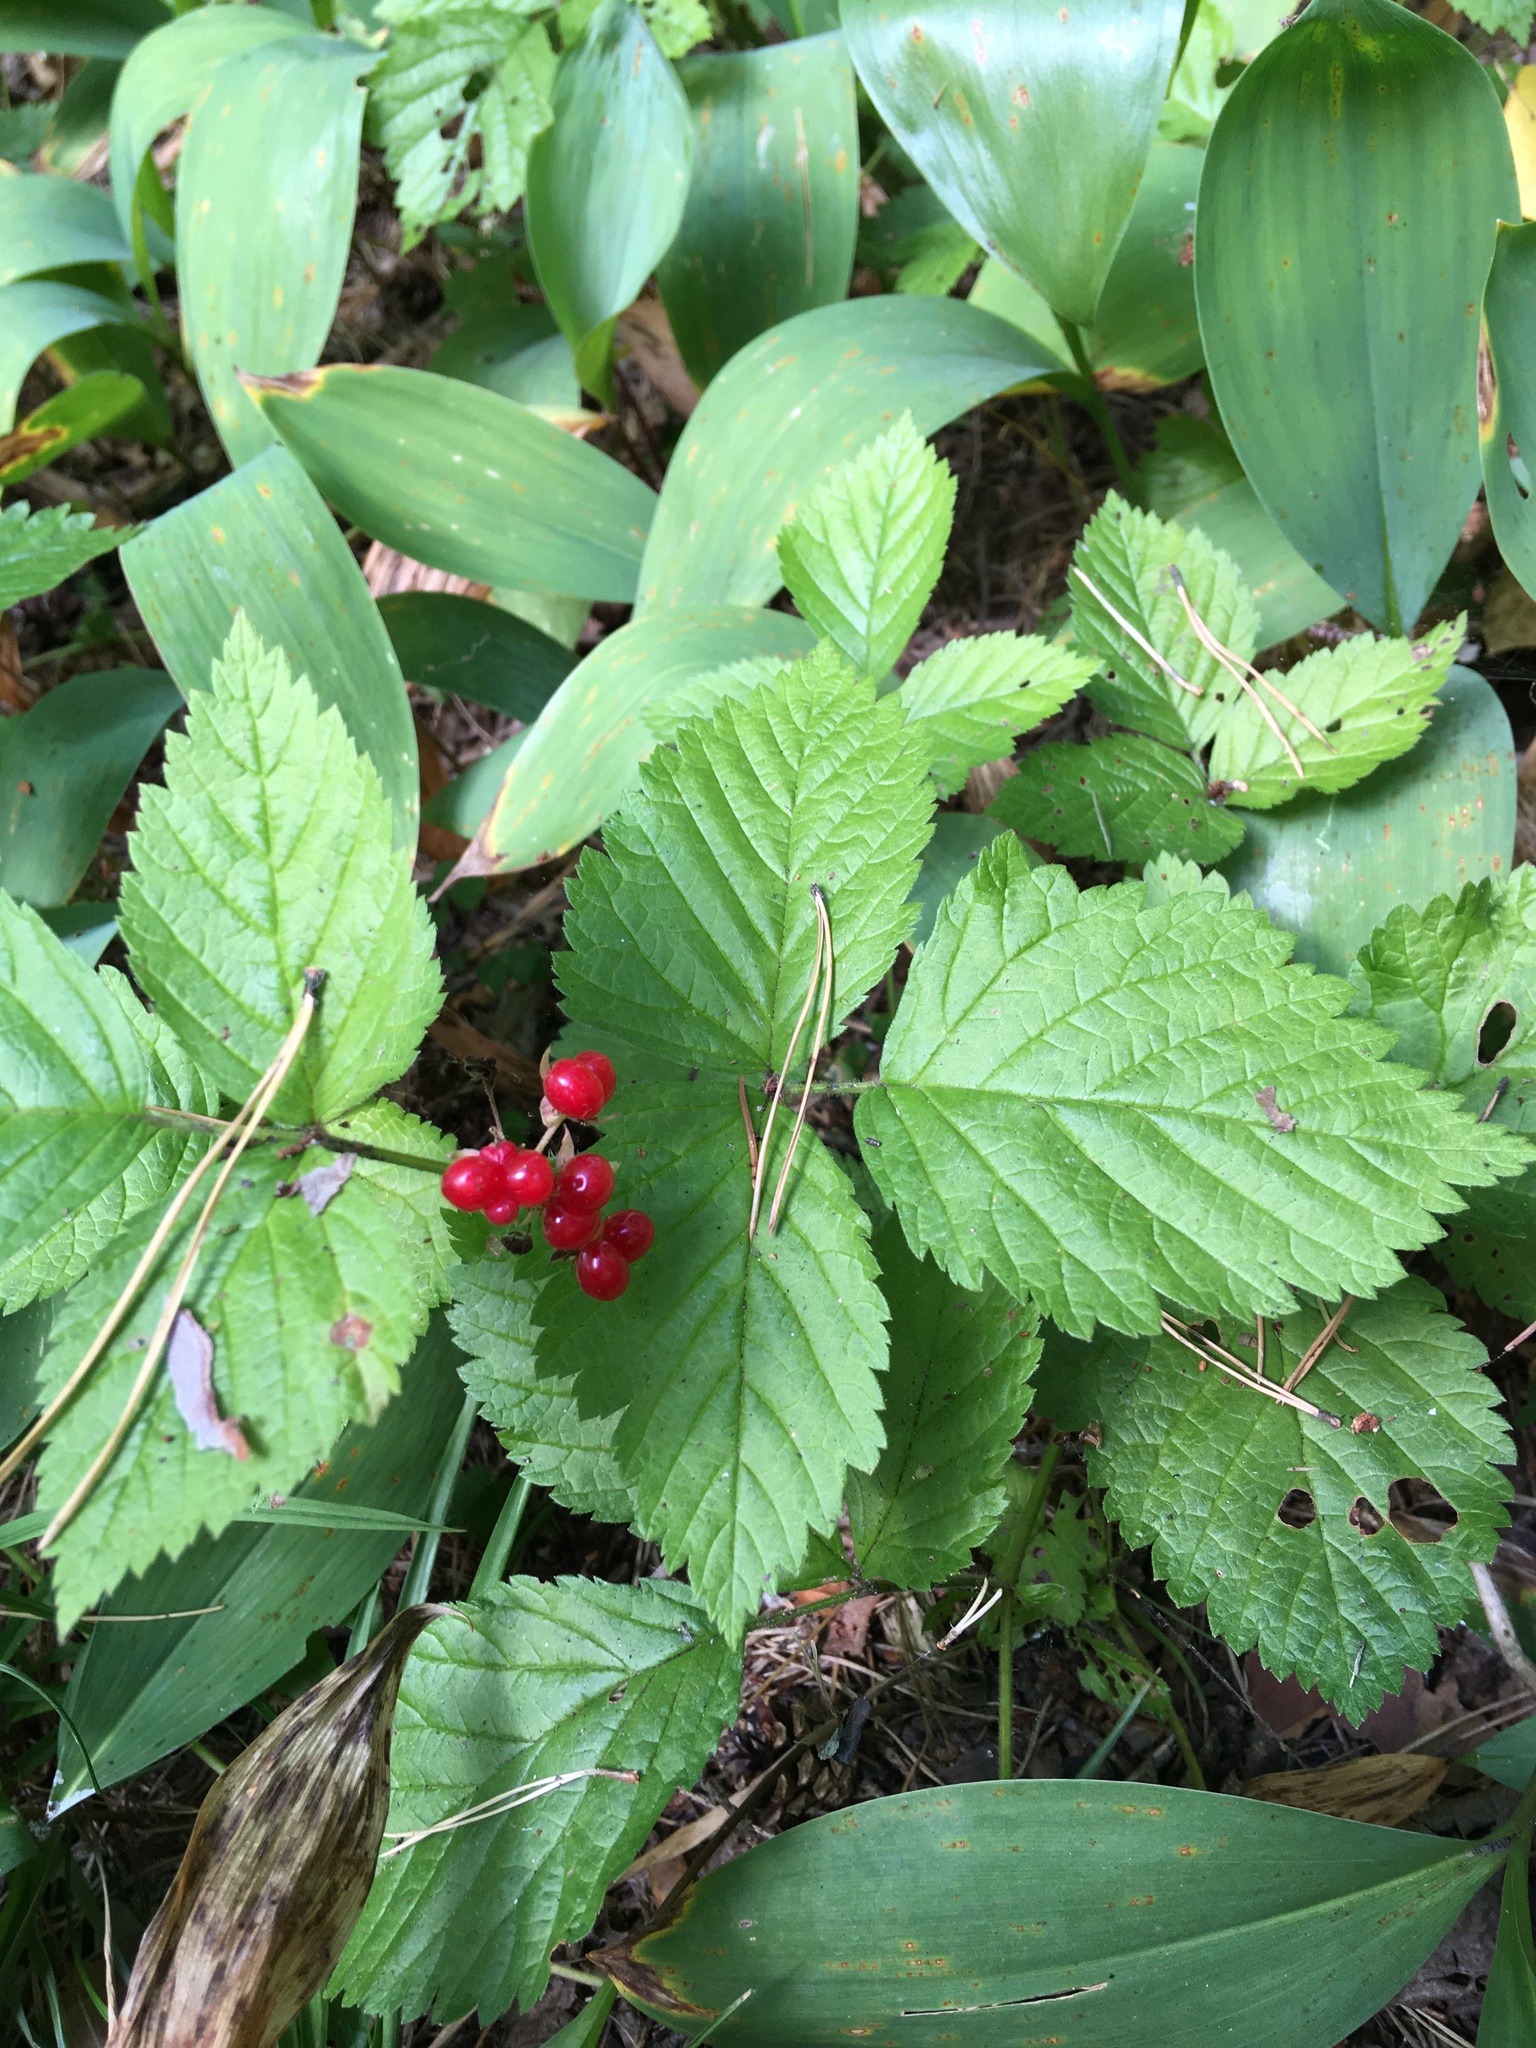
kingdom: Plantae
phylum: Tracheophyta
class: Magnoliopsida
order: Rosales
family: Rosaceae
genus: Rubus
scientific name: Rubus saxatilis
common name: Stone bramble
